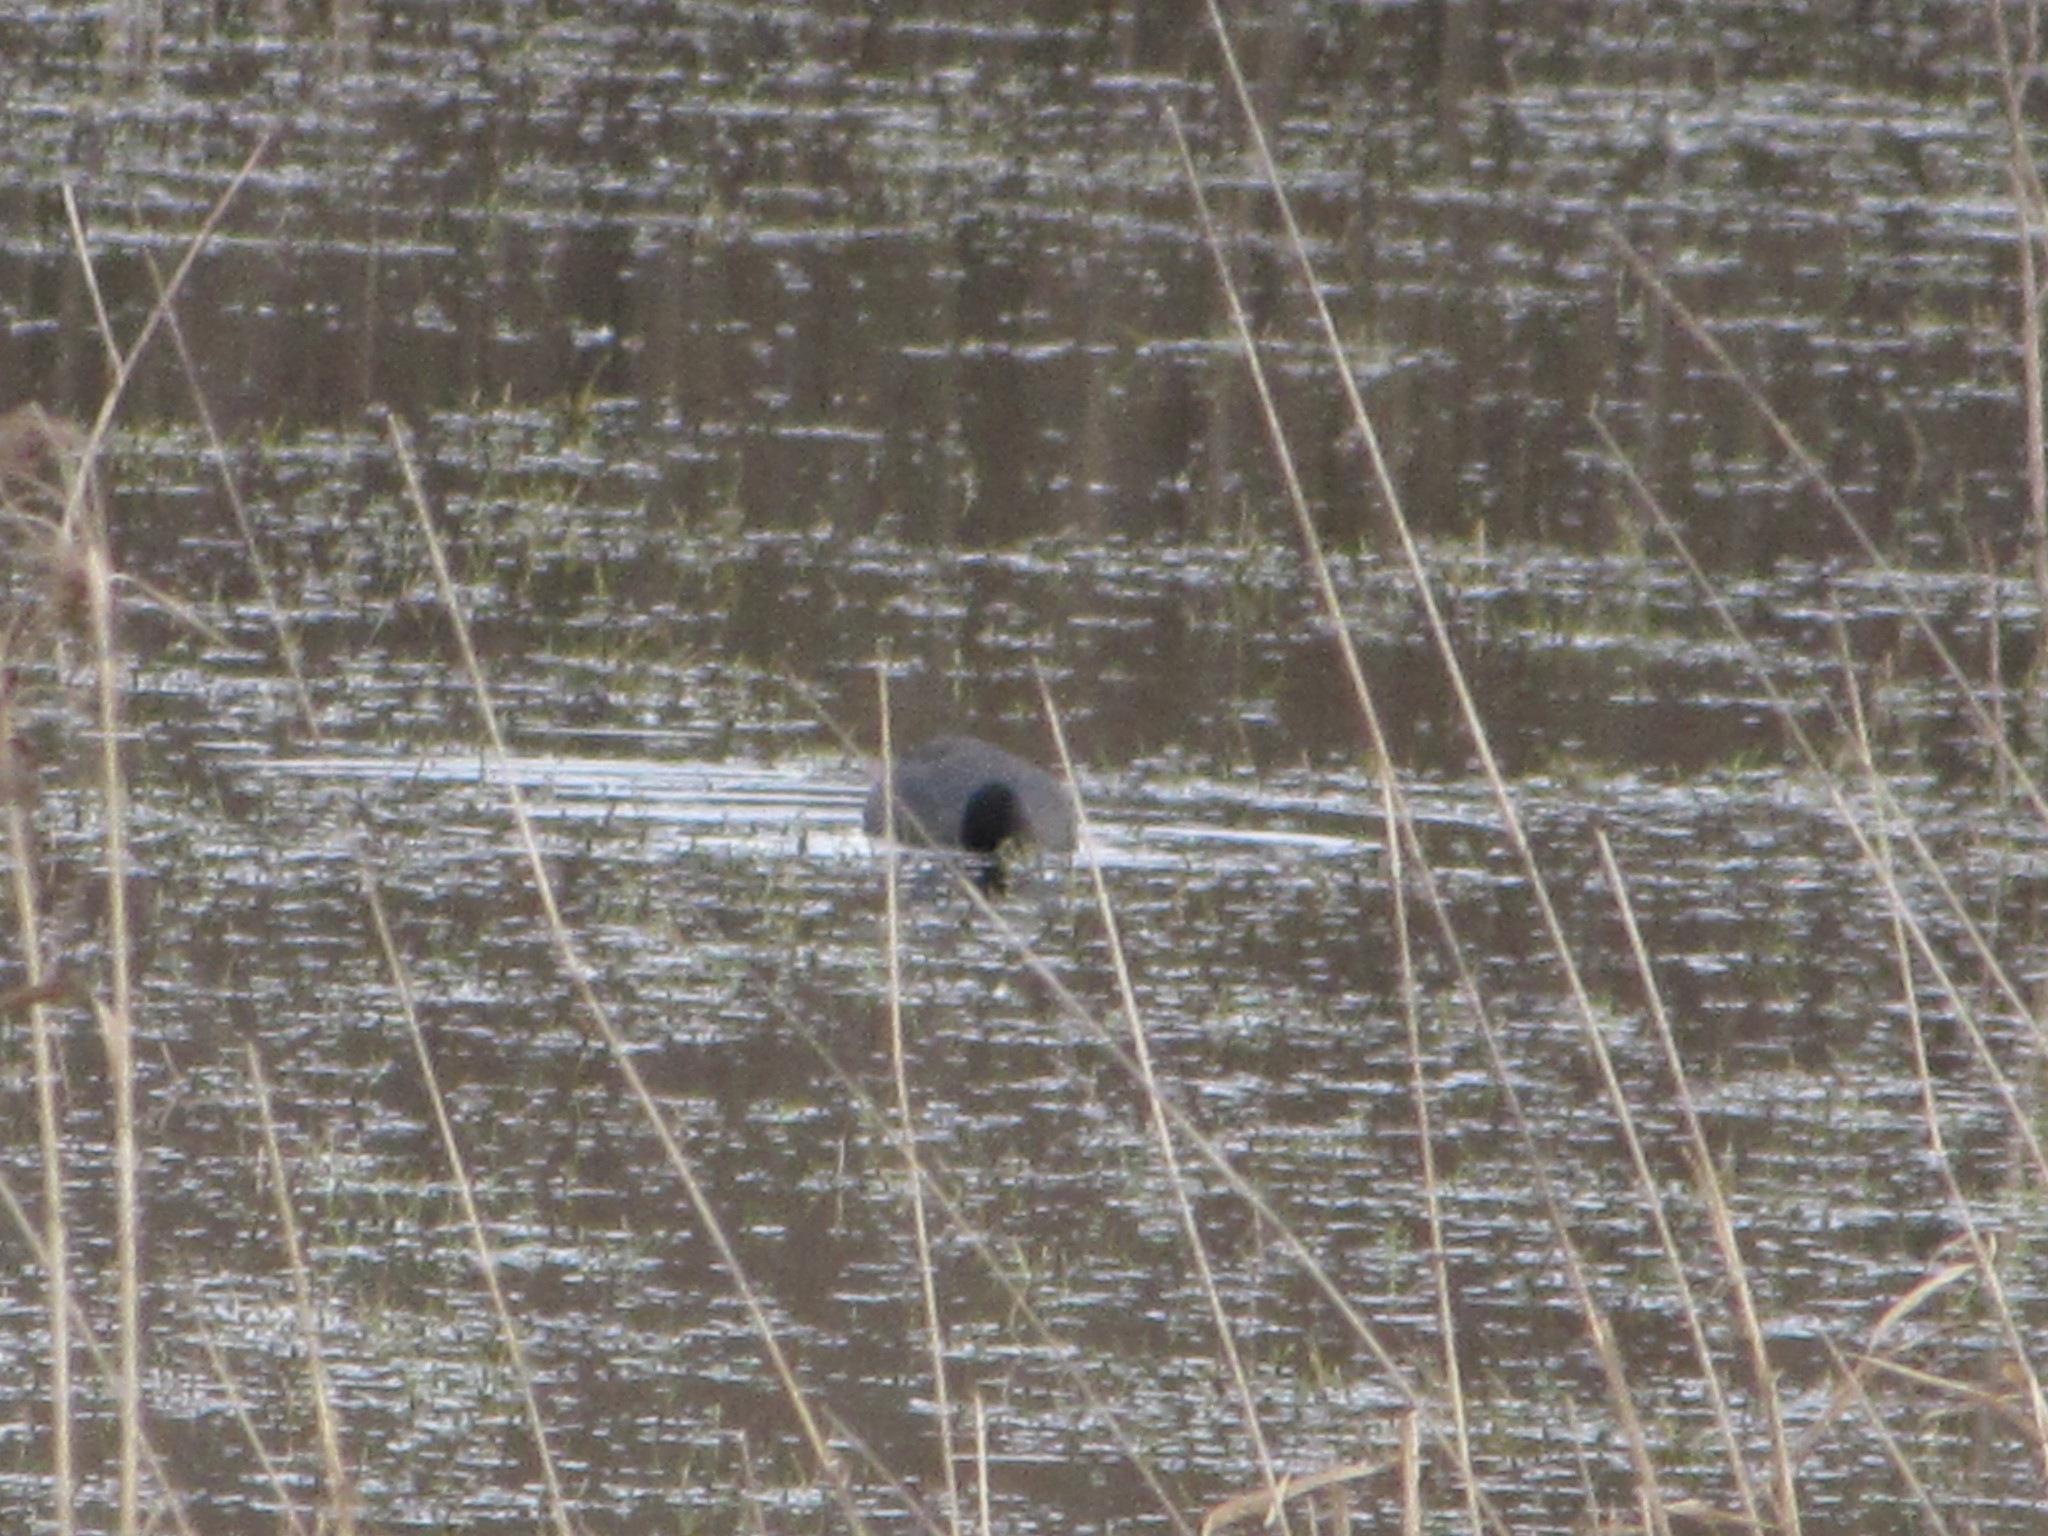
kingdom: Animalia
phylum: Chordata
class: Aves
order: Gruiformes
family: Rallidae
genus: Fulica
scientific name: Fulica americana
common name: American coot
